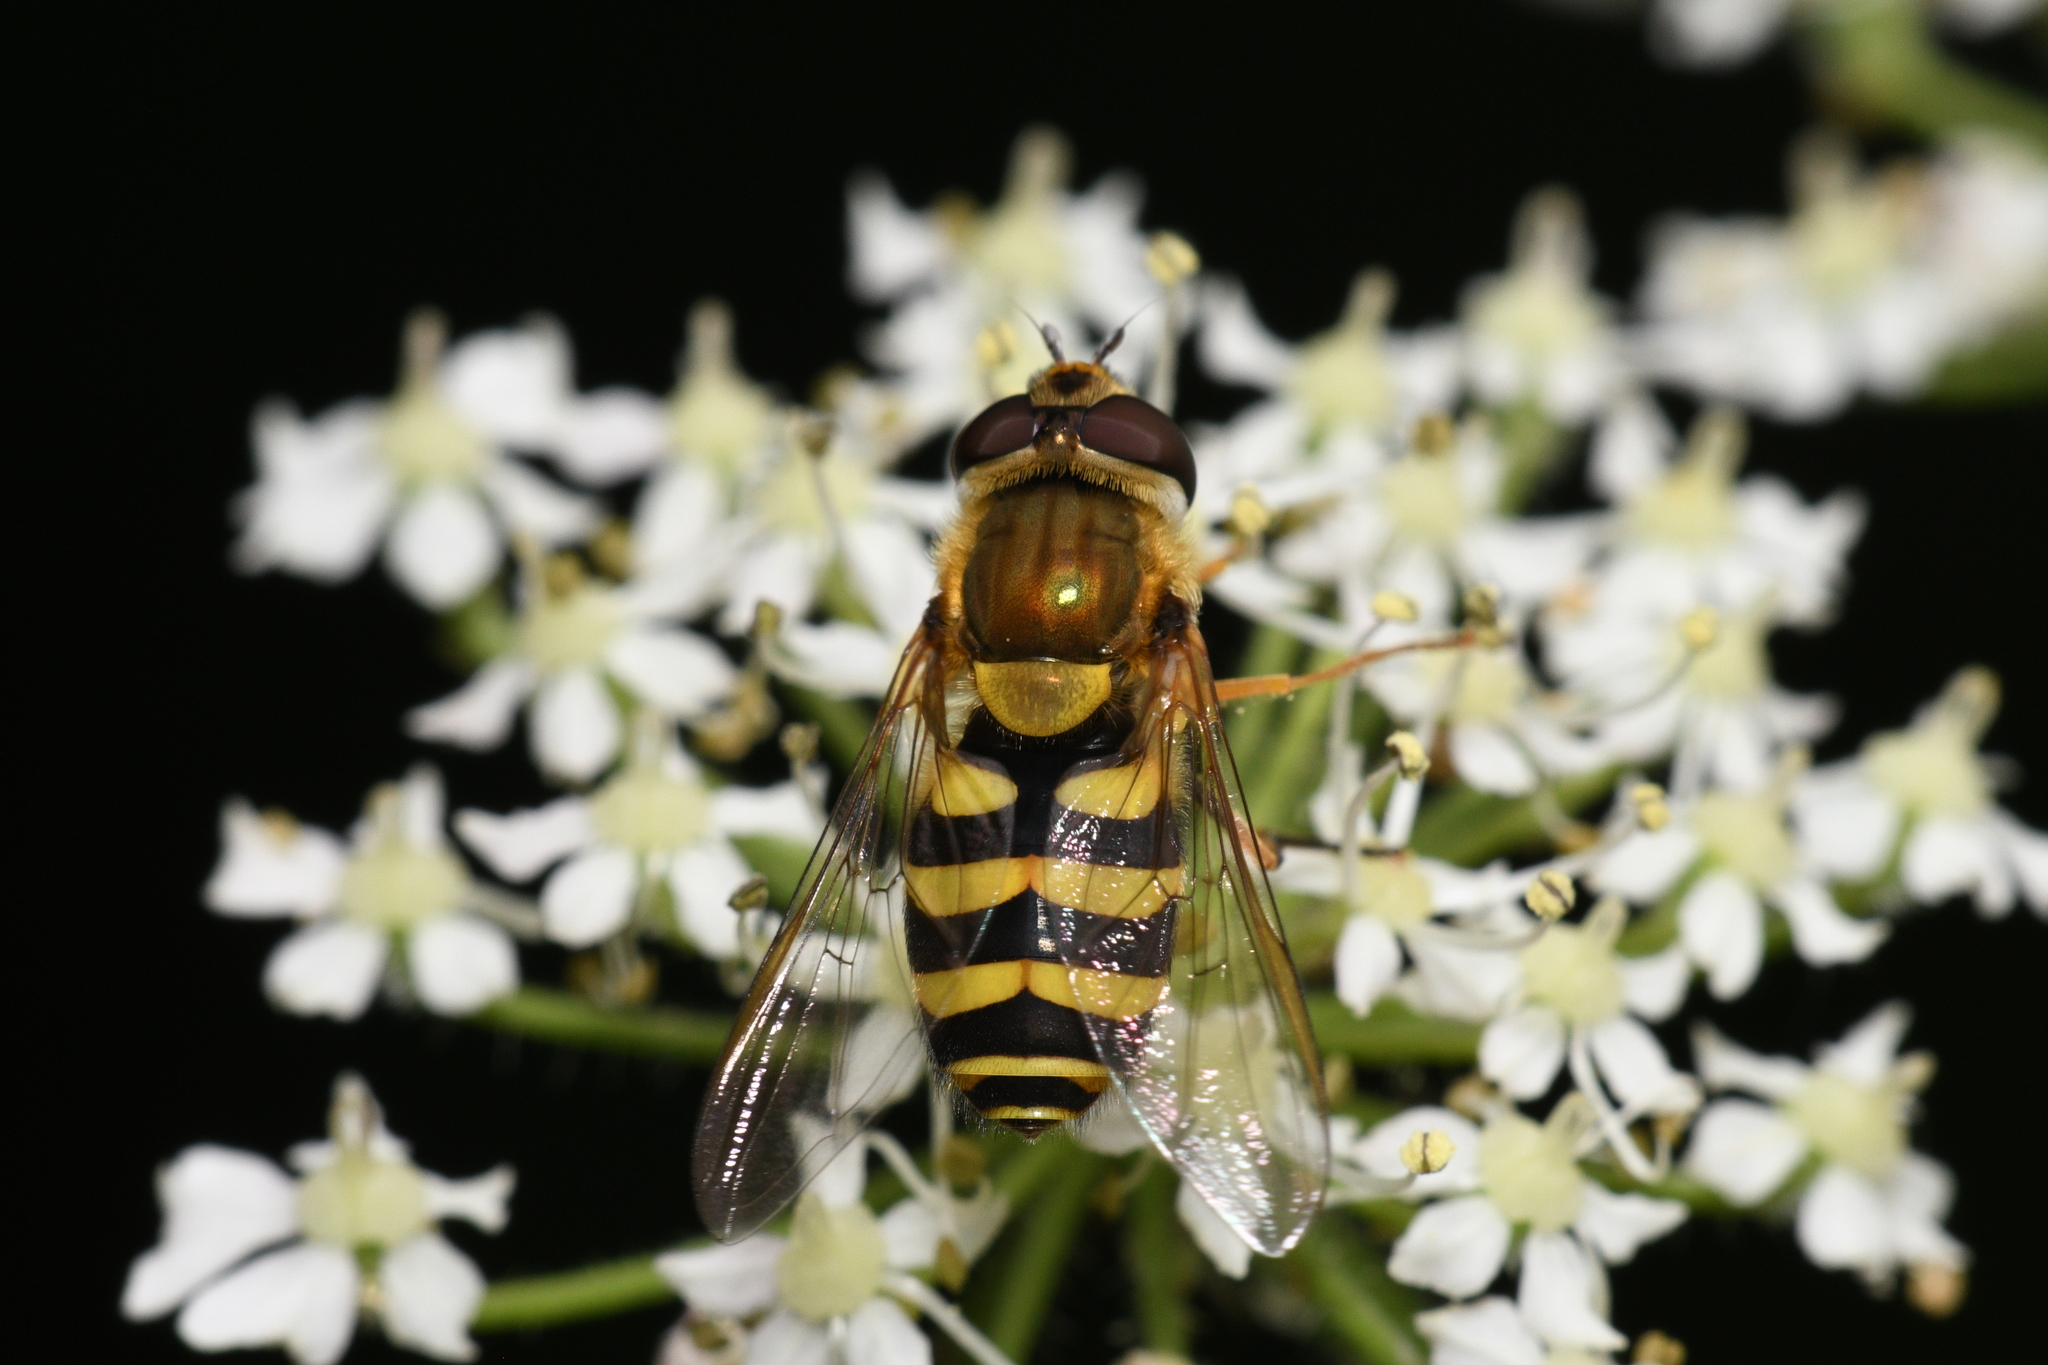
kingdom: Animalia
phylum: Arthropoda
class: Insecta
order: Diptera
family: Syrphidae
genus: Syrphus
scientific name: Syrphus
